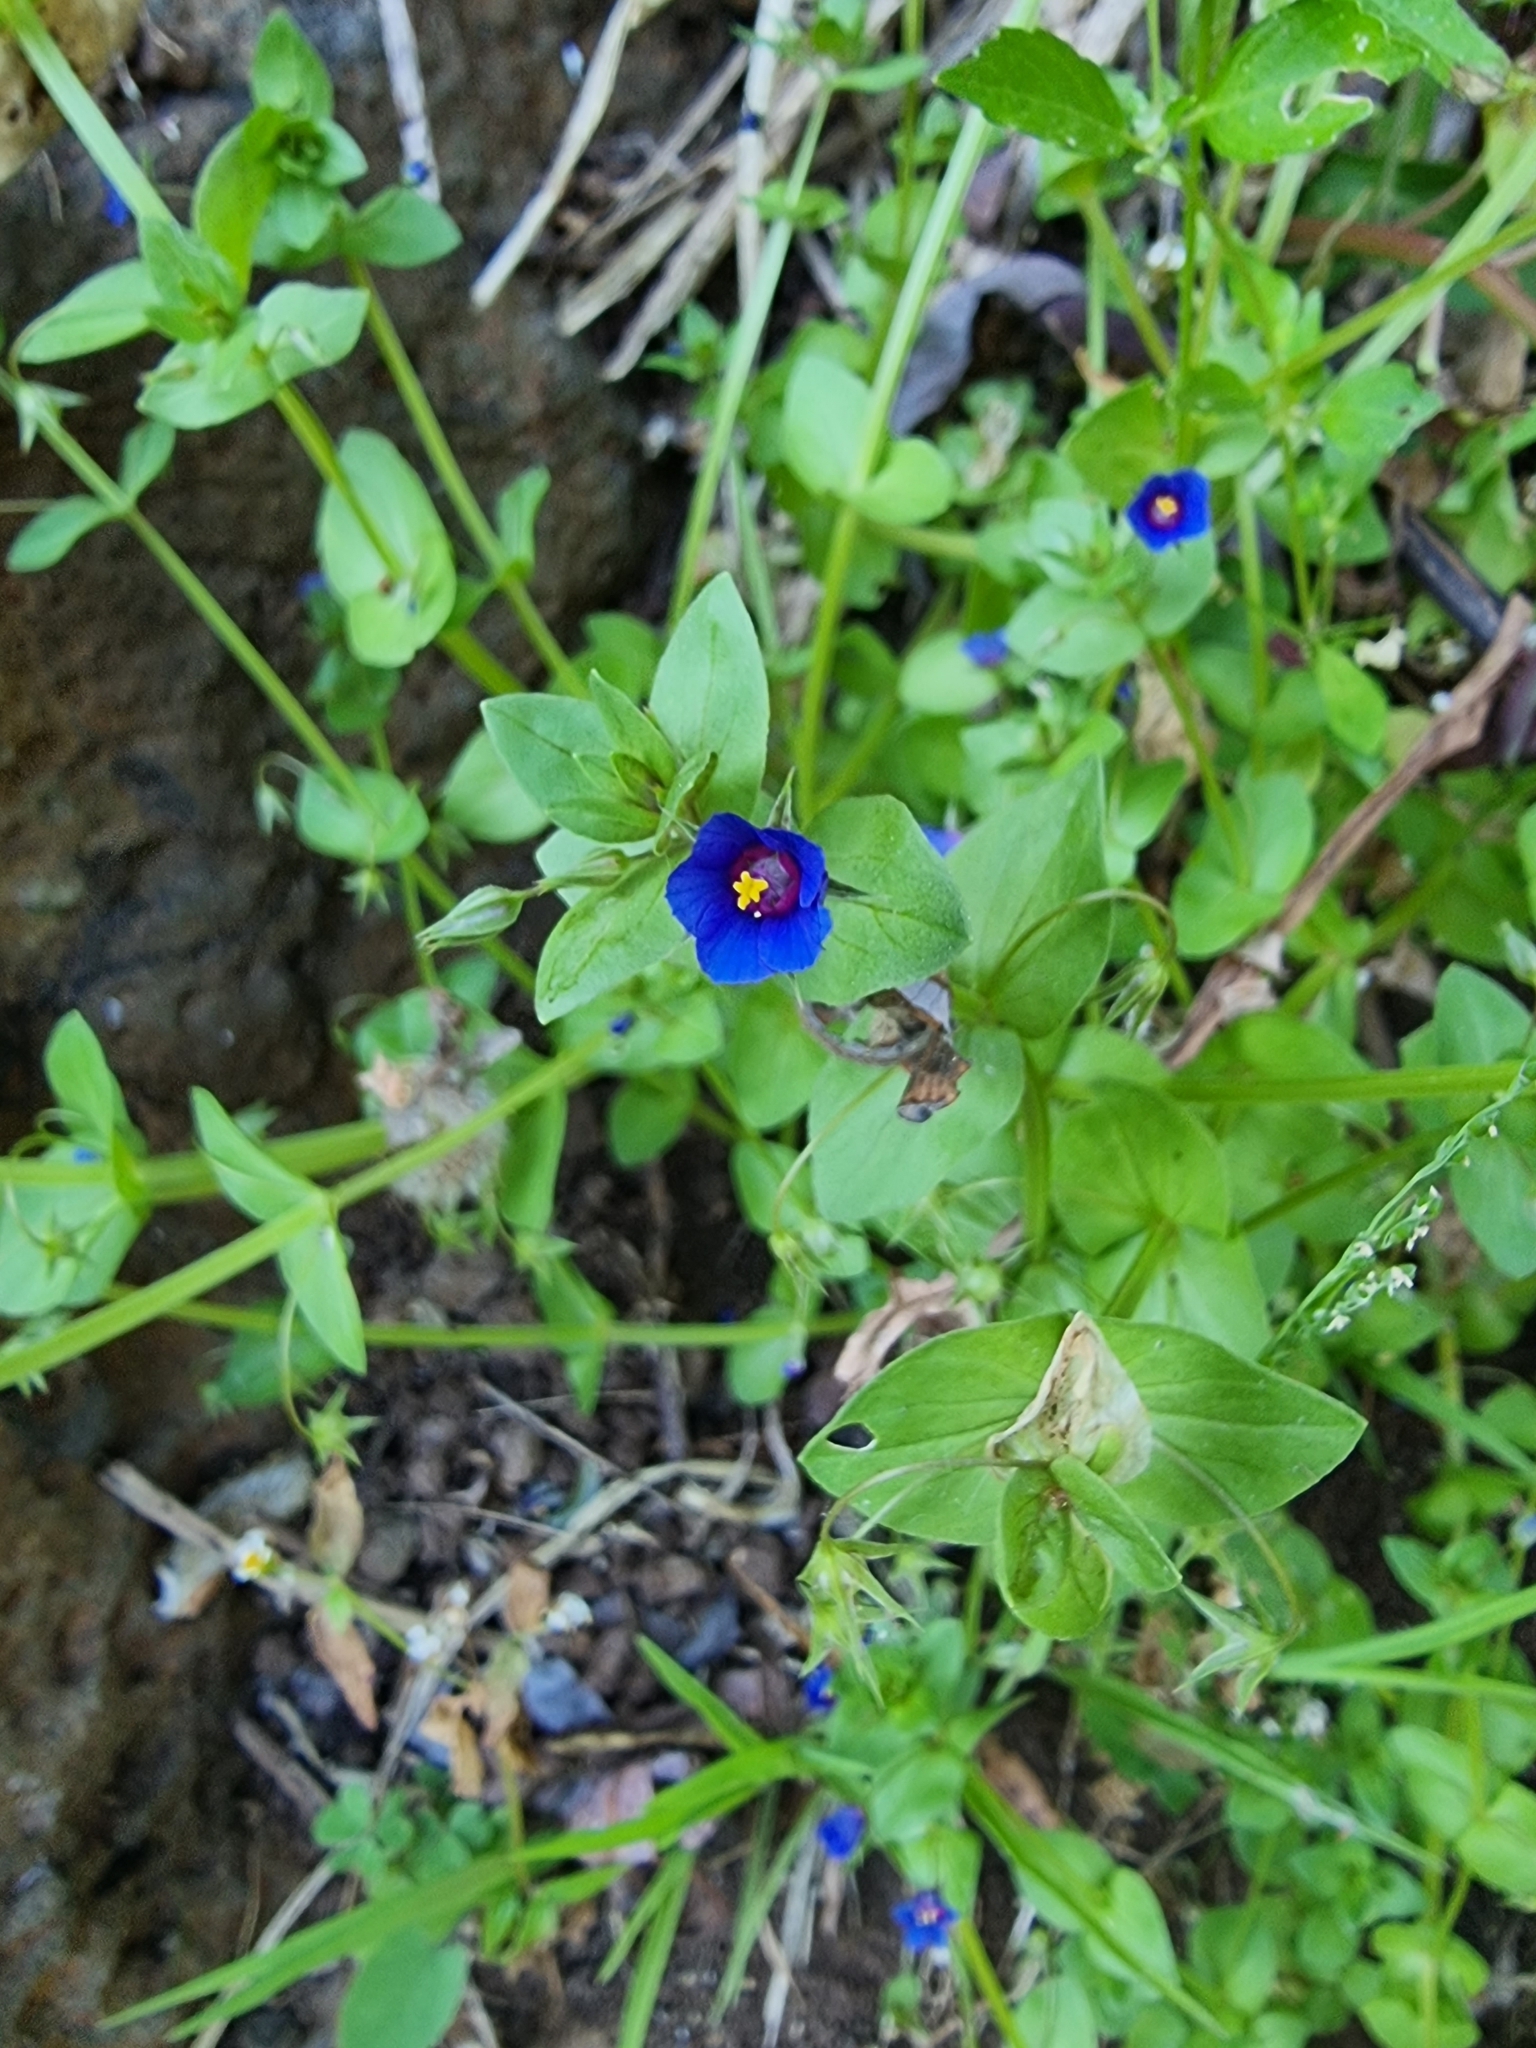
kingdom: Plantae
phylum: Tracheophyta
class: Magnoliopsida
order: Ericales
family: Primulaceae
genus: Lysimachia
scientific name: Lysimachia loeflingii
